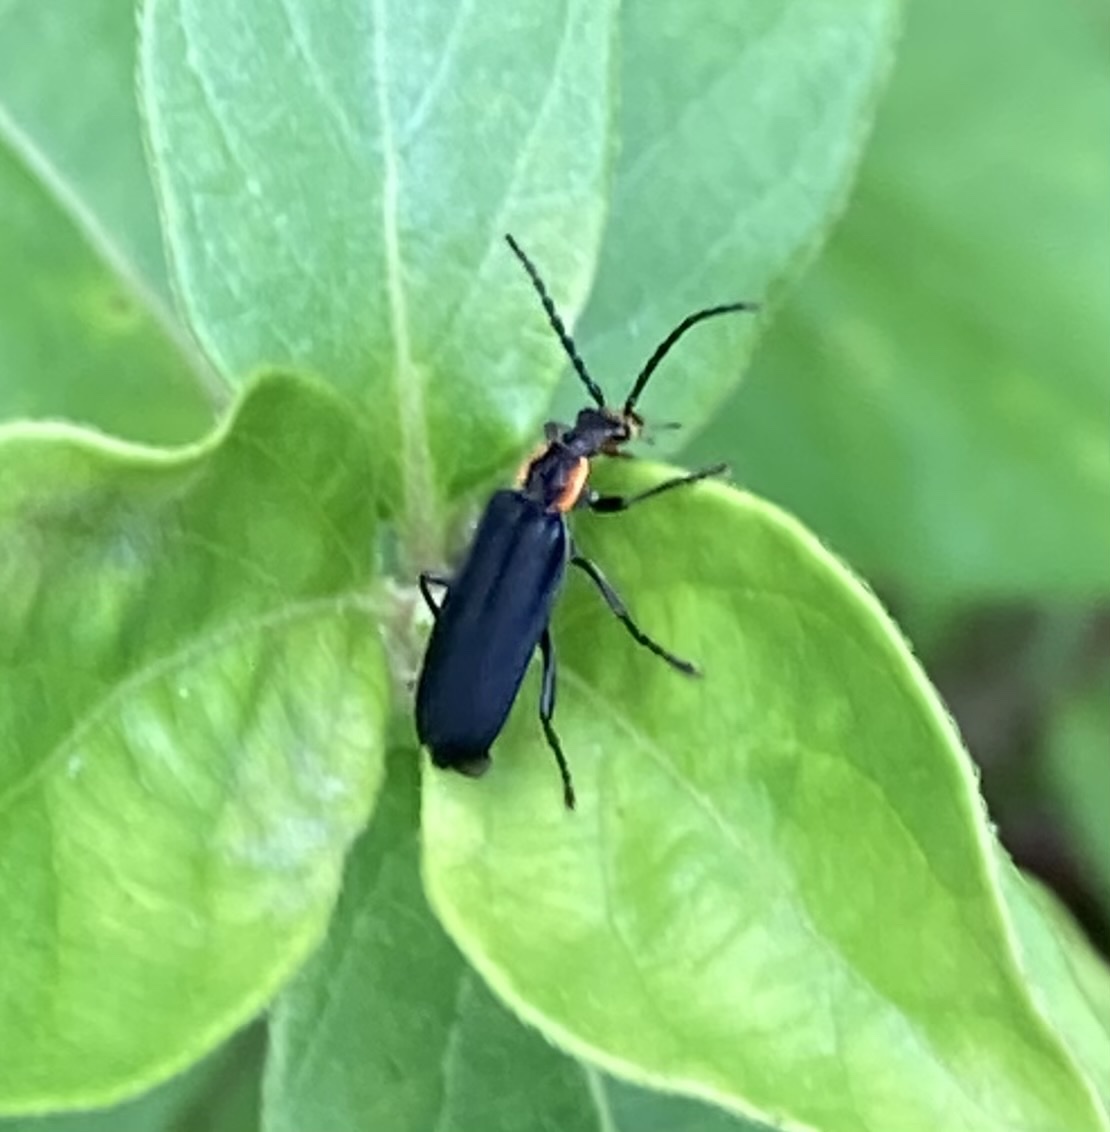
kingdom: Animalia
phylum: Arthropoda
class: Insecta
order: Coleoptera
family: Cantharidae
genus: Podabrus
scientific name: Podabrus rugosulus
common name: Wrinkled soldier beetle
